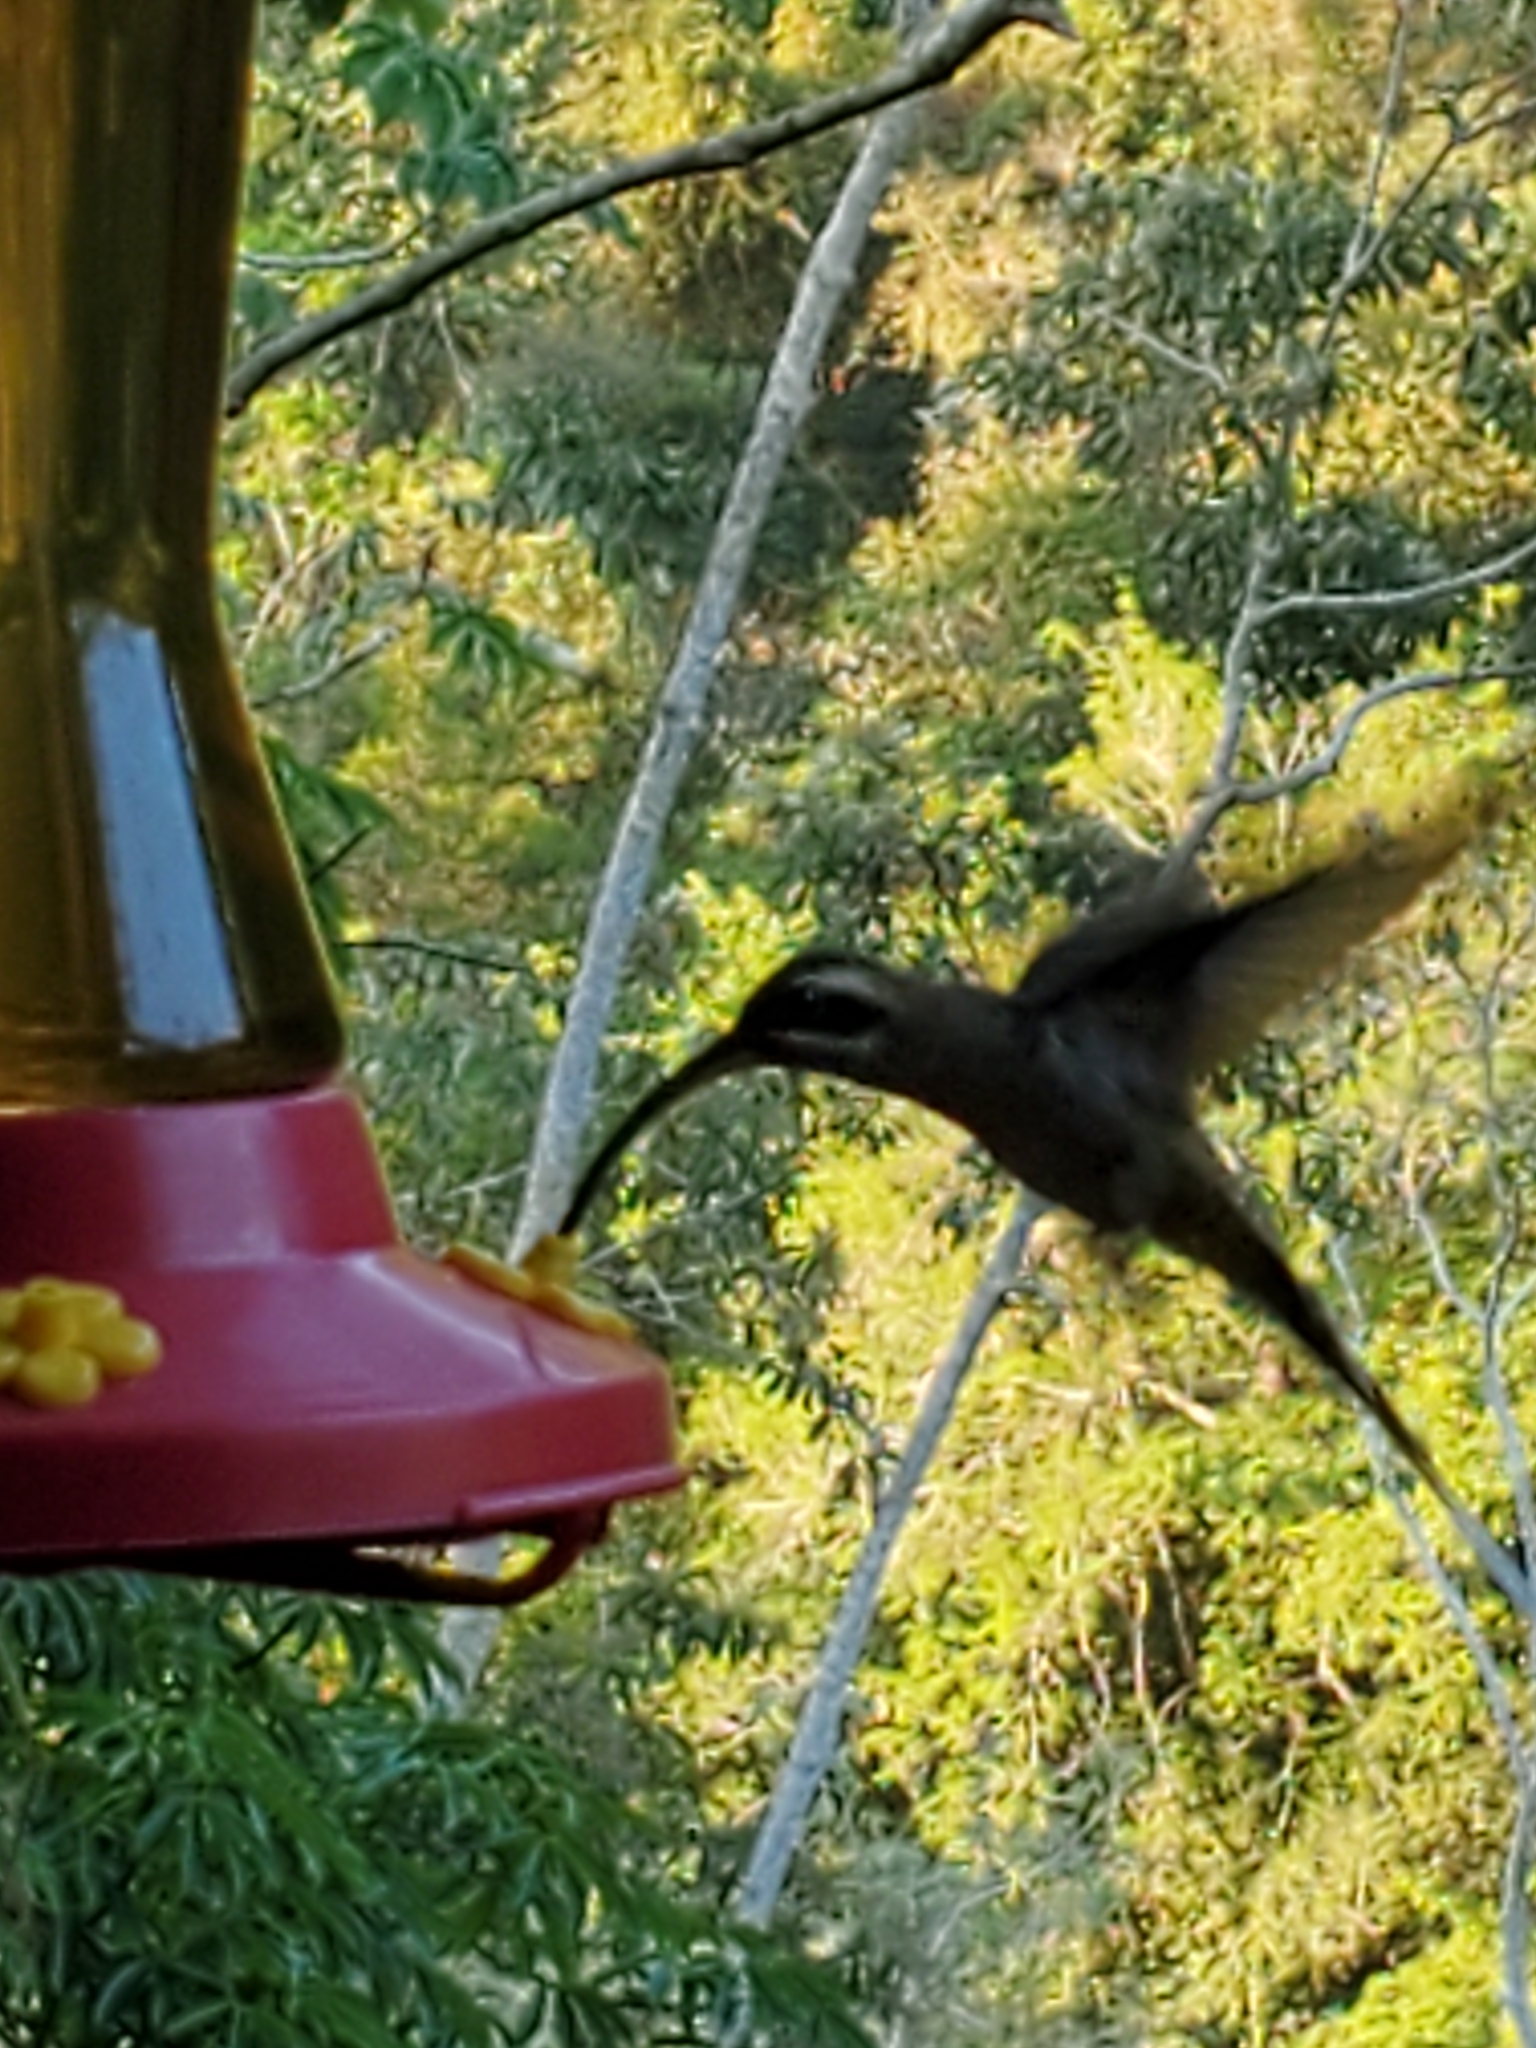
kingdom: Animalia
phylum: Chordata
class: Aves
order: Apodiformes
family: Trochilidae
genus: Phaethornis
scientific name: Phaethornis longirostris
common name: Long-billed hermit
